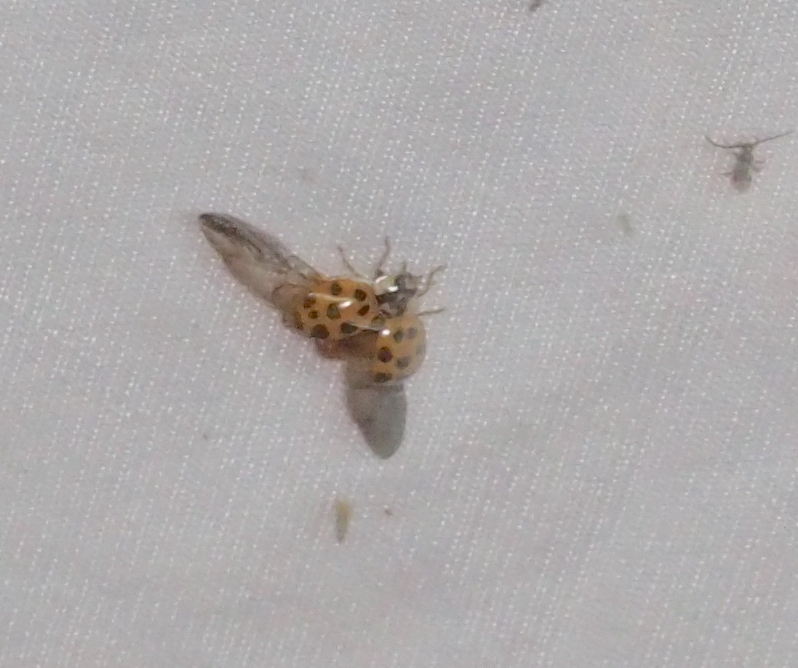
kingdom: Animalia
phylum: Arthropoda
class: Insecta
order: Coleoptera
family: Coccinellidae
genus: Harmonia
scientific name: Harmonia axyridis
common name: Harlequin ladybird
